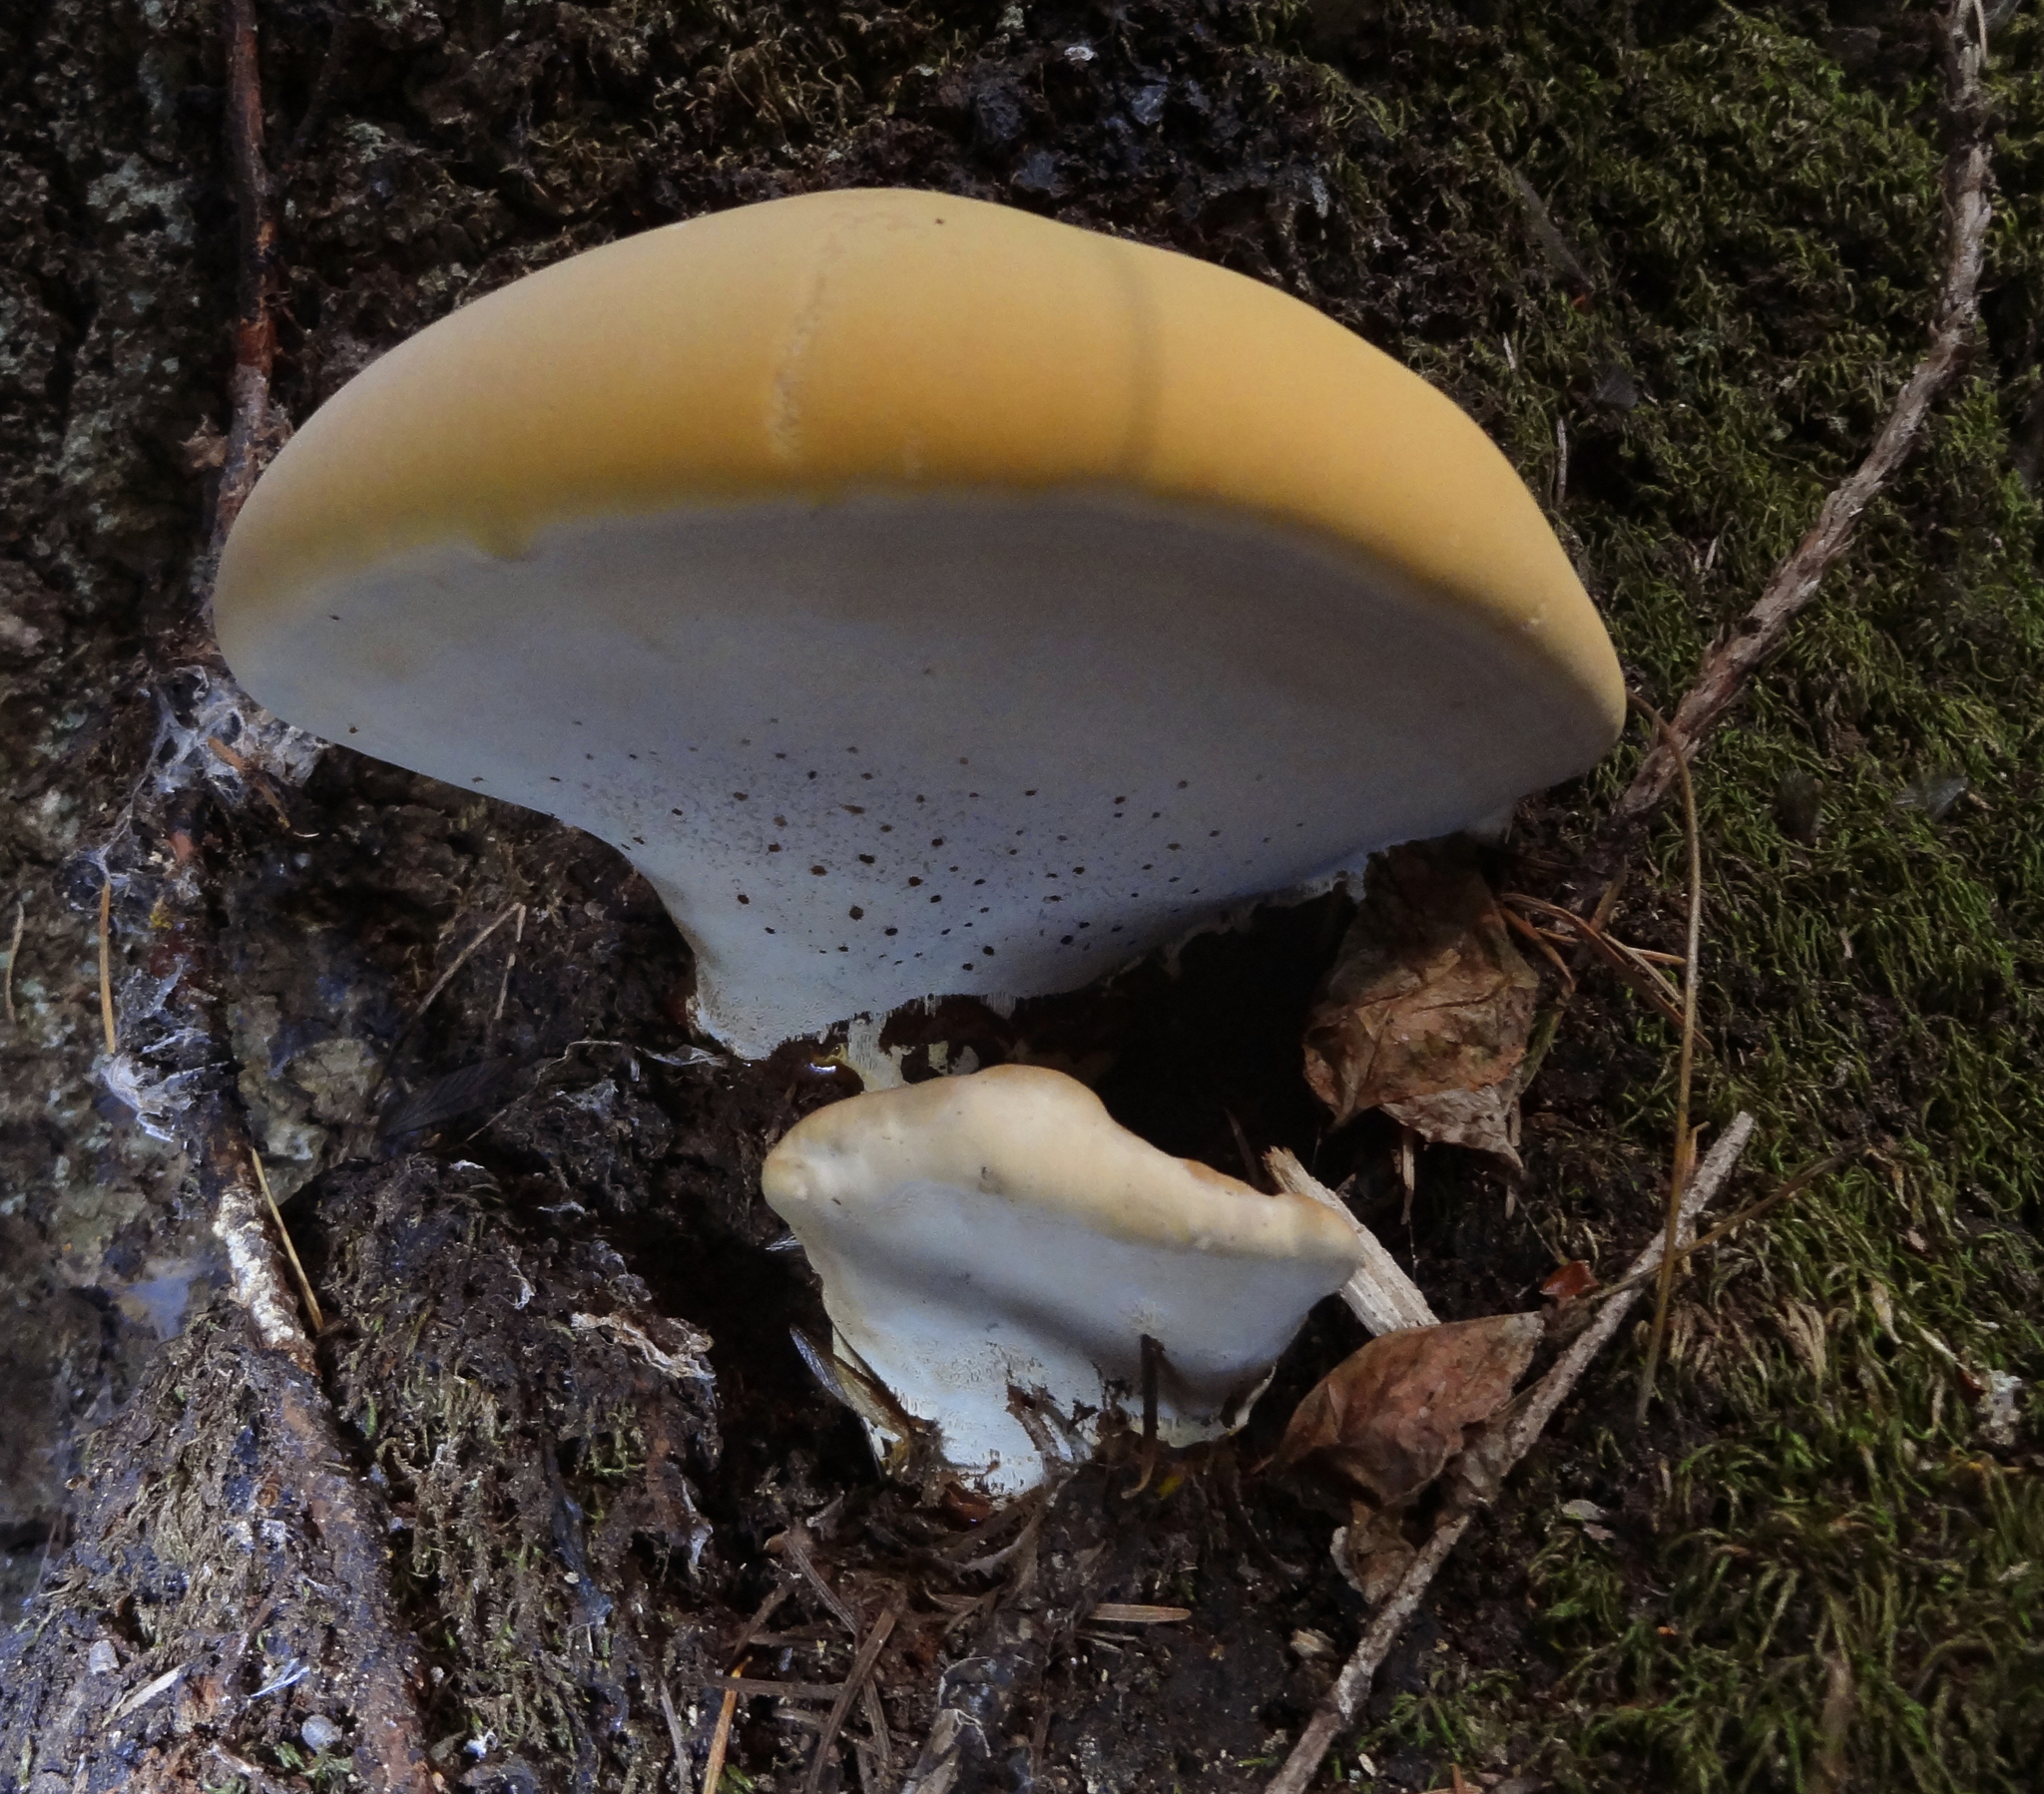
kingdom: Fungi
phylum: Basidiomycota
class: Agaricomycetes
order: Polyporales
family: Polyporaceae
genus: Ganoderma
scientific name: Ganoderma polychromum
